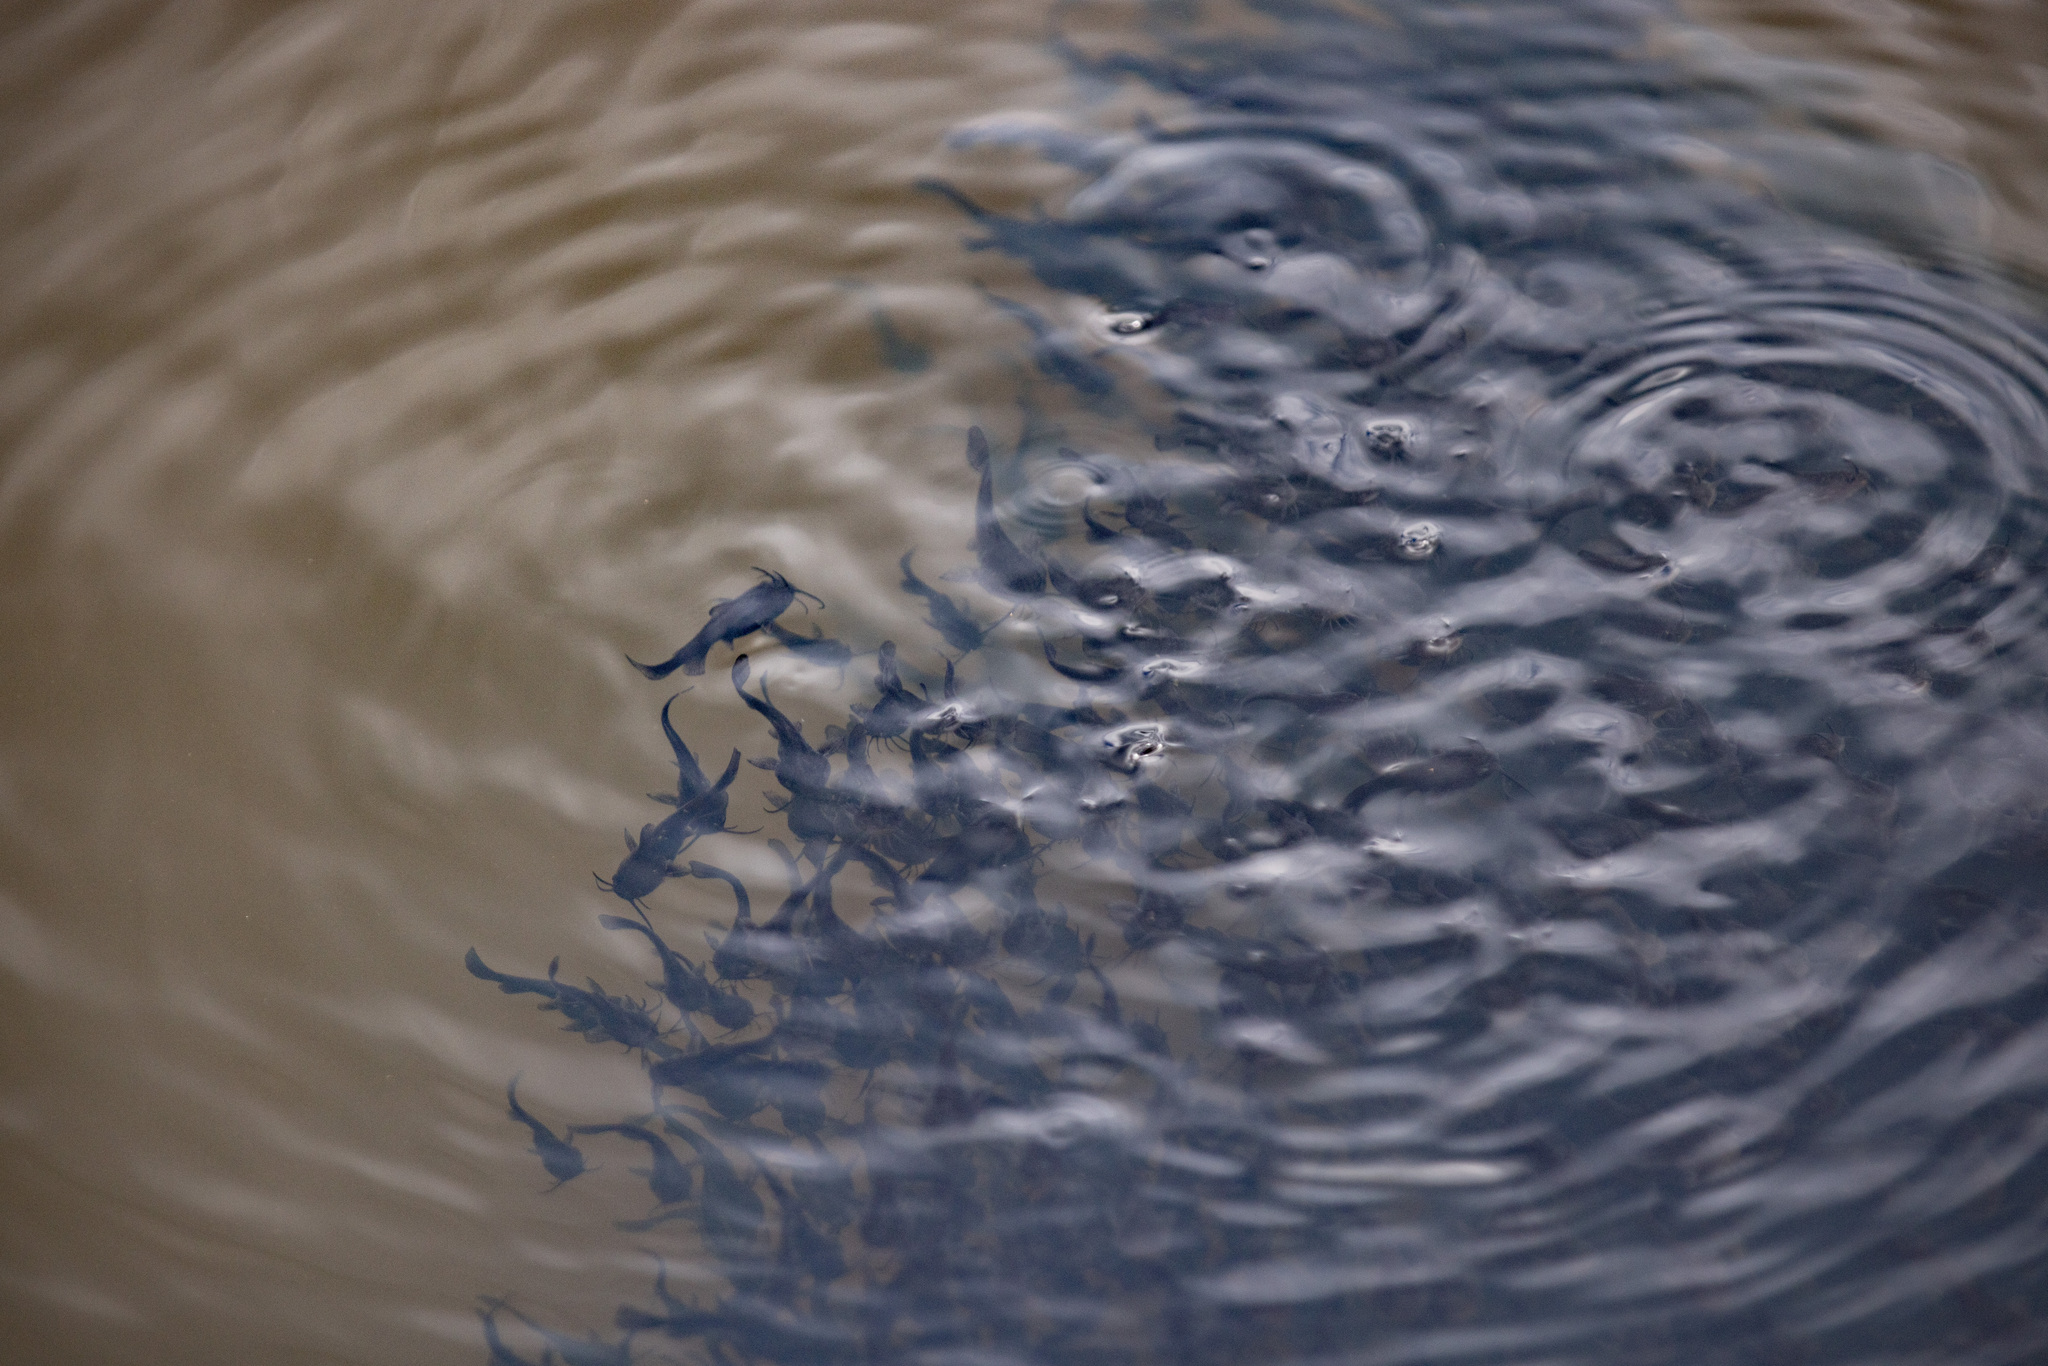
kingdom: Animalia
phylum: Chordata
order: Siluriformes
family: Ictaluridae
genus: Ameiurus
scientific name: Ameiurus nebulosus
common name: Brown bullhead
